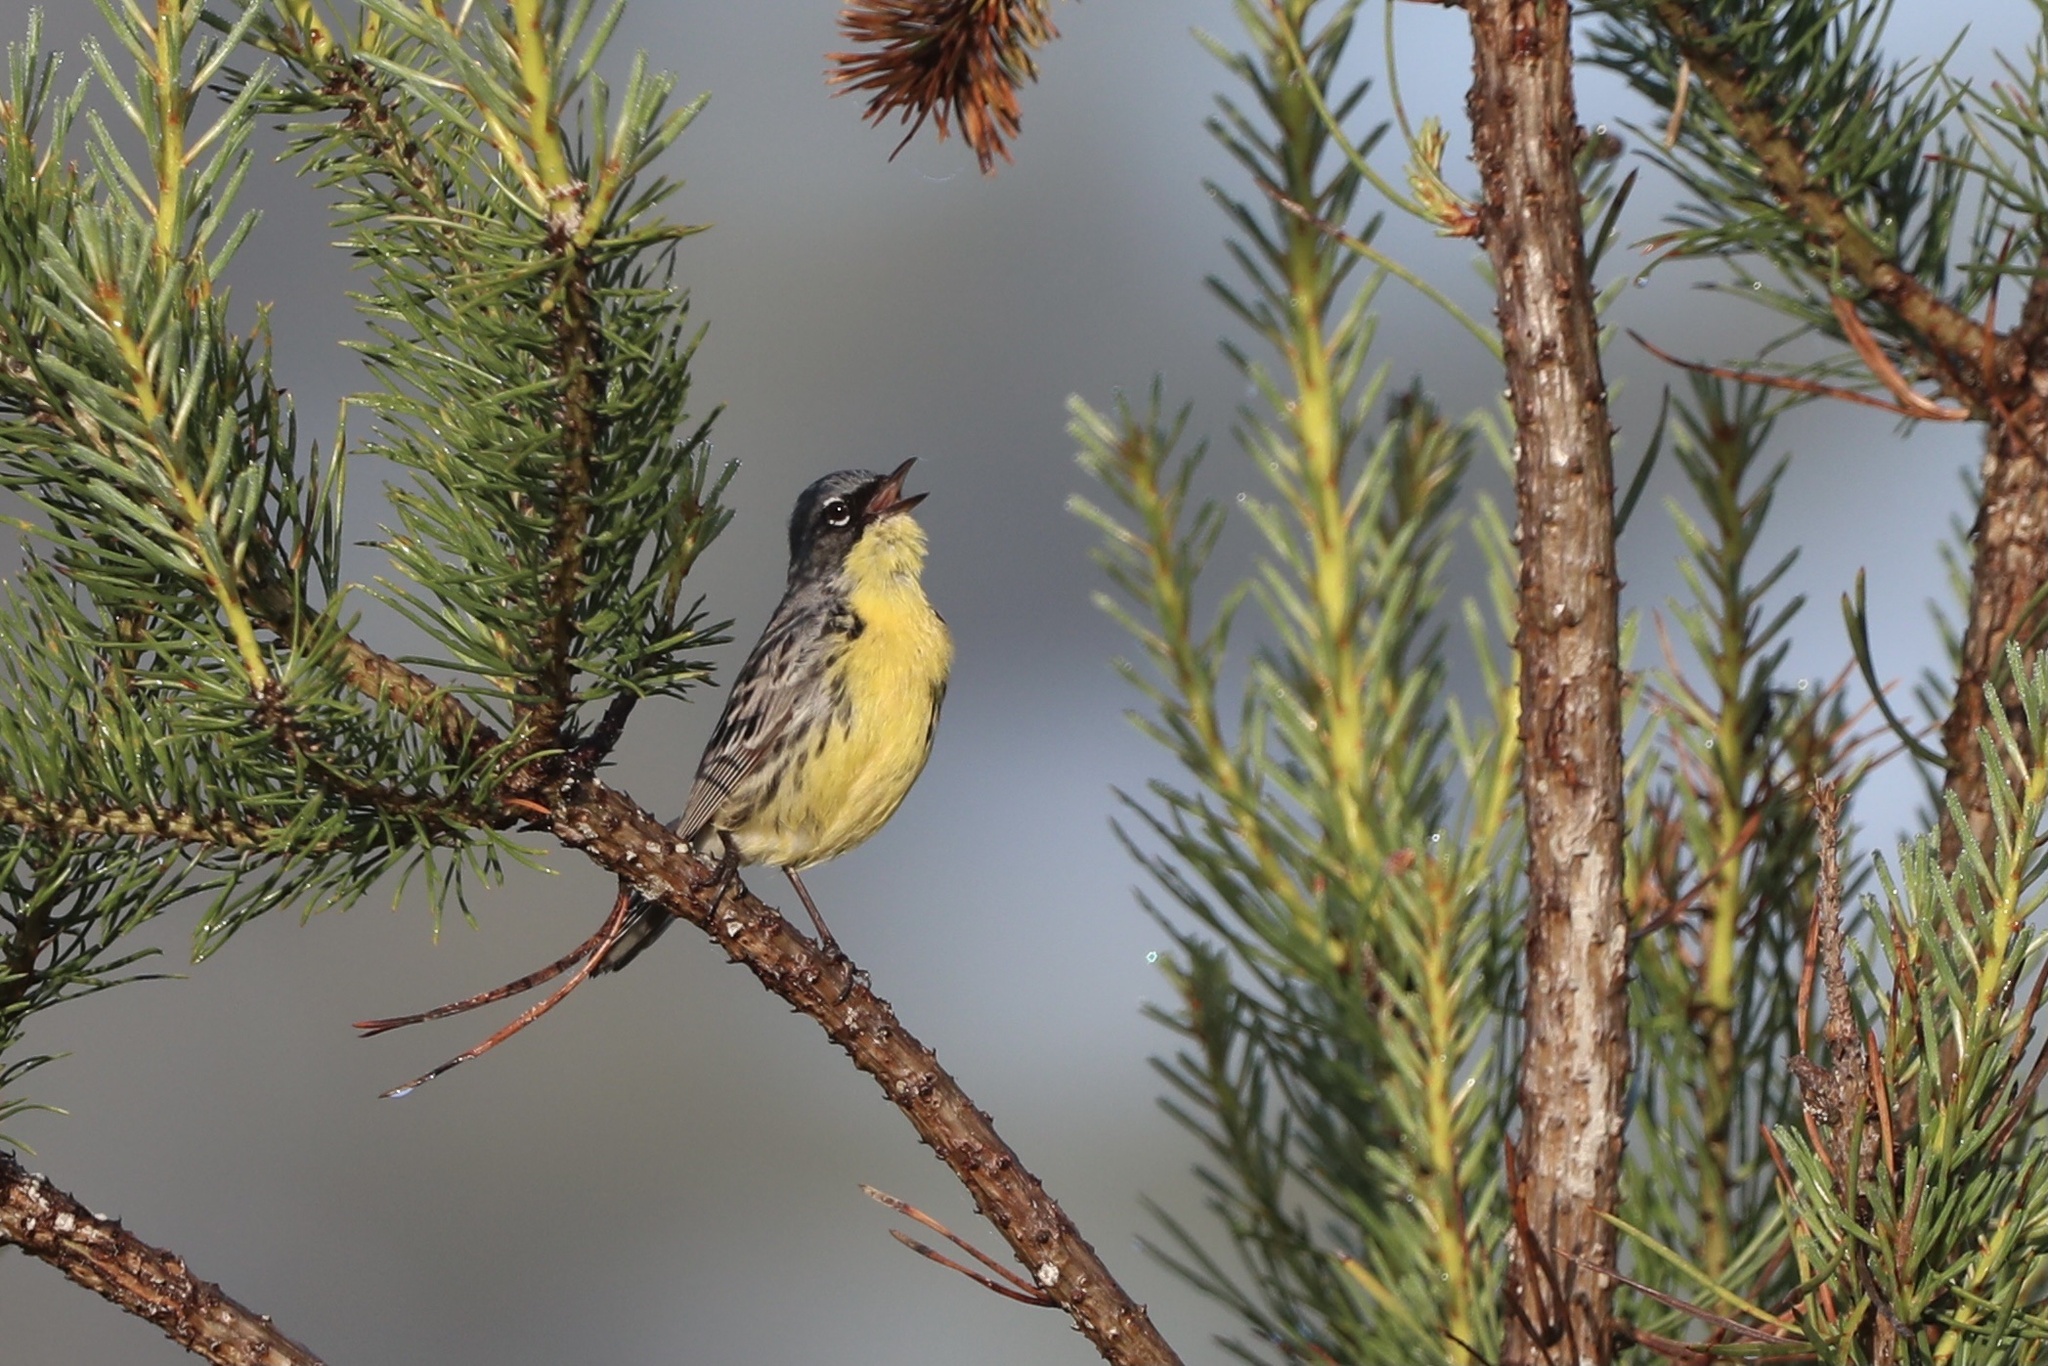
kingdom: Animalia
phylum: Chordata
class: Aves
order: Passeriformes
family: Parulidae
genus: Setophaga
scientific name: Setophaga kirtlandii
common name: Kirtland's warbler
